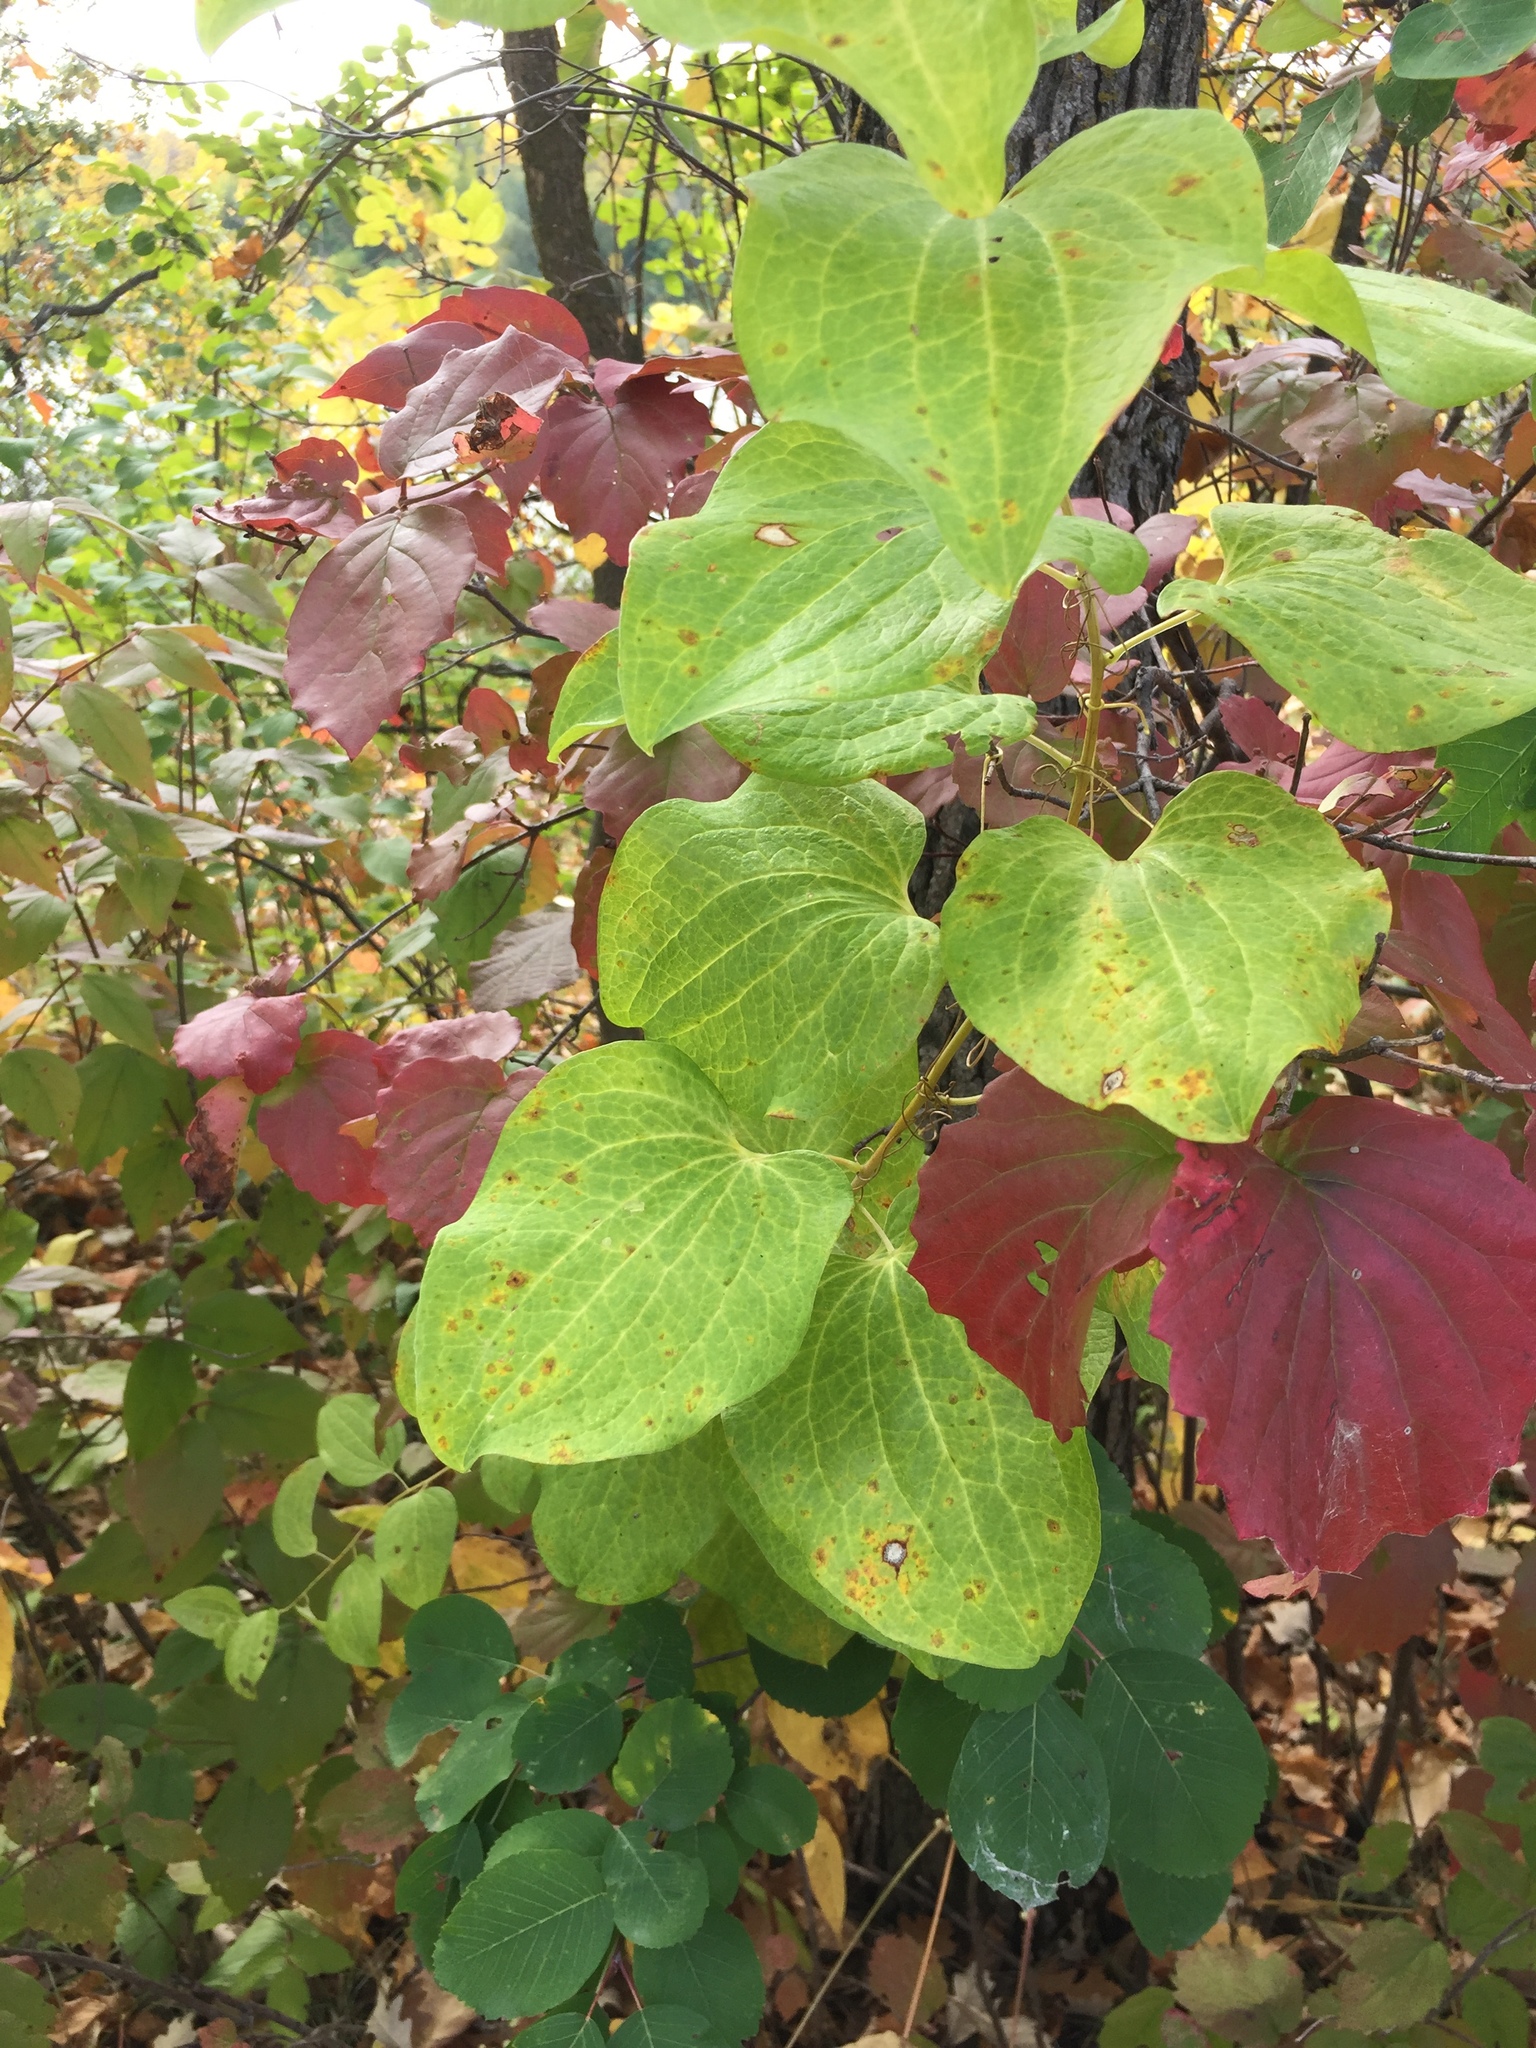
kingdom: Plantae
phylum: Tracheophyta
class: Liliopsida
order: Liliales
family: Smilacaceae
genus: Smilax
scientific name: Smilax lasioneura
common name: Blue ridge carrionflower
